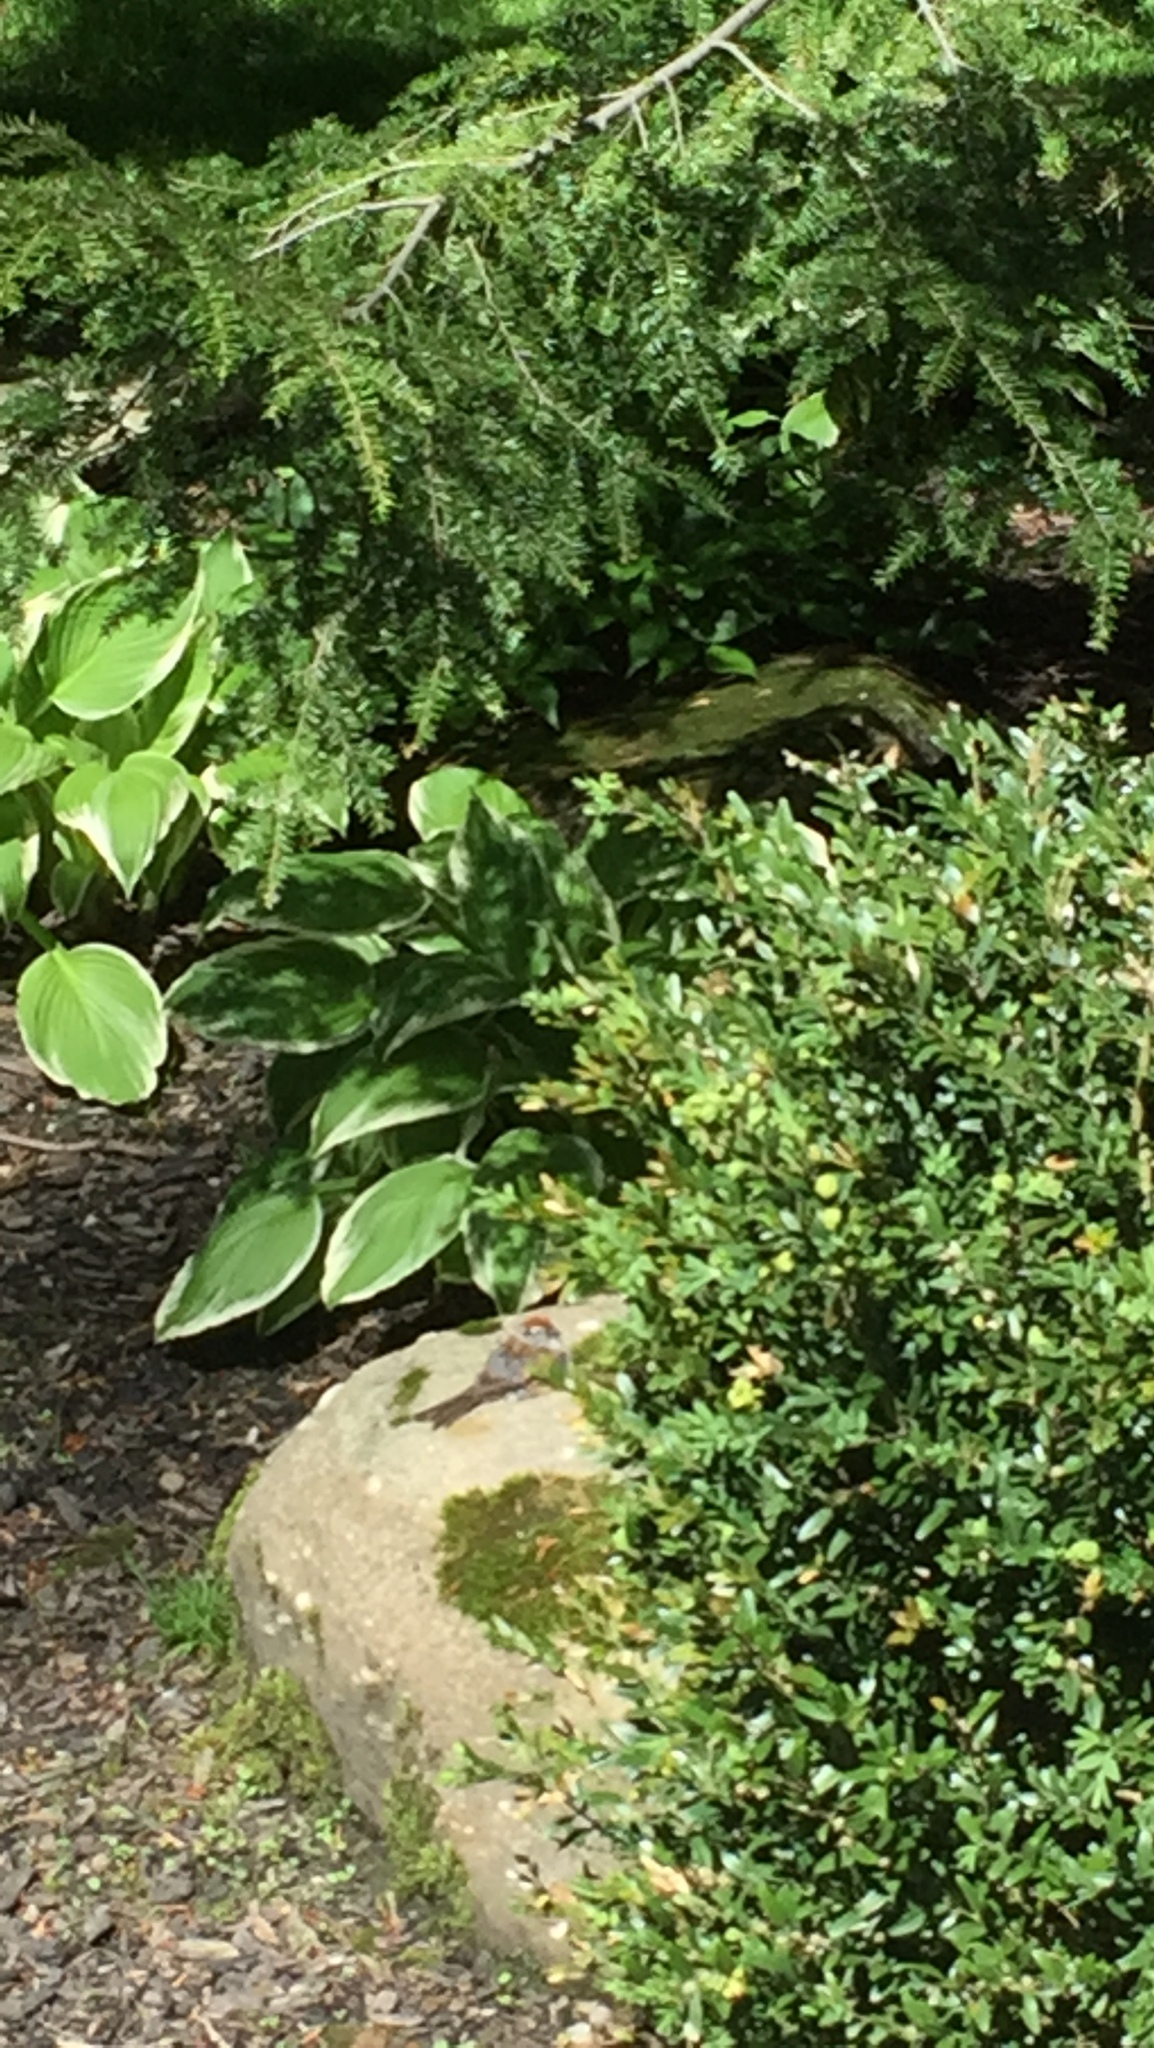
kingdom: Animalia
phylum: Chordata
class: Aves
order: Passeriformes
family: Passerellidae
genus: Spizella
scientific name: Spizella passerina
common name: Chipping sparrow
